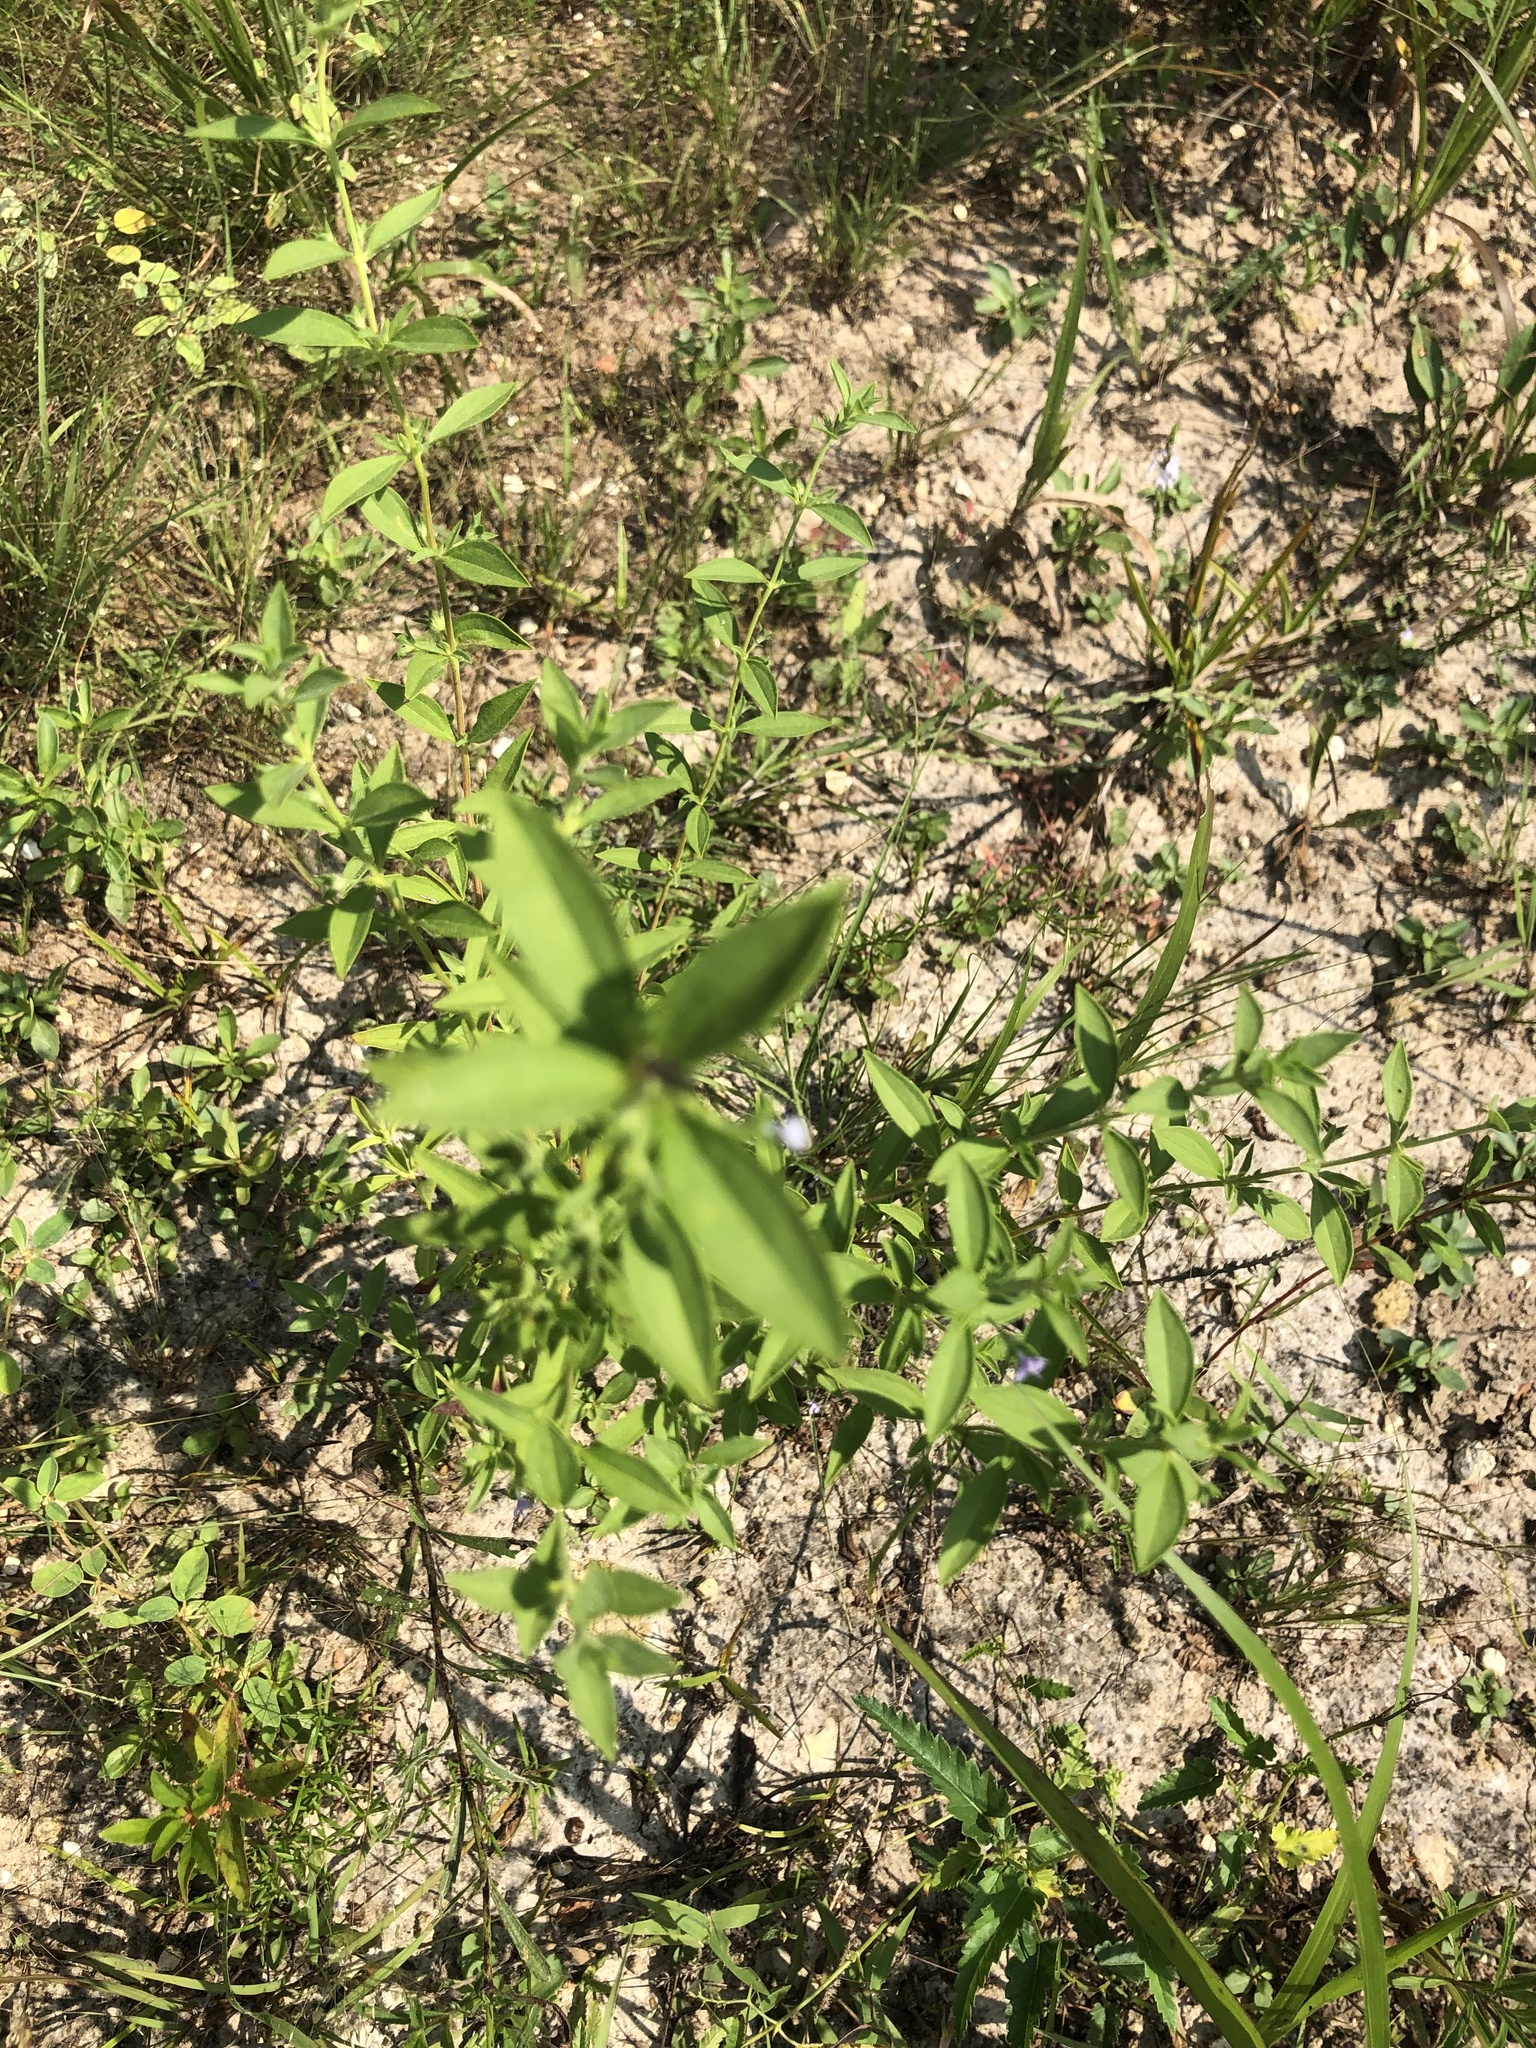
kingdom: Plantae
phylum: Tracheophyta
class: Magnoliopsida
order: Lamiales
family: Lamiaceae
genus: Trichostema
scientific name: Trichostema brachiatum
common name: False pennyroyal
